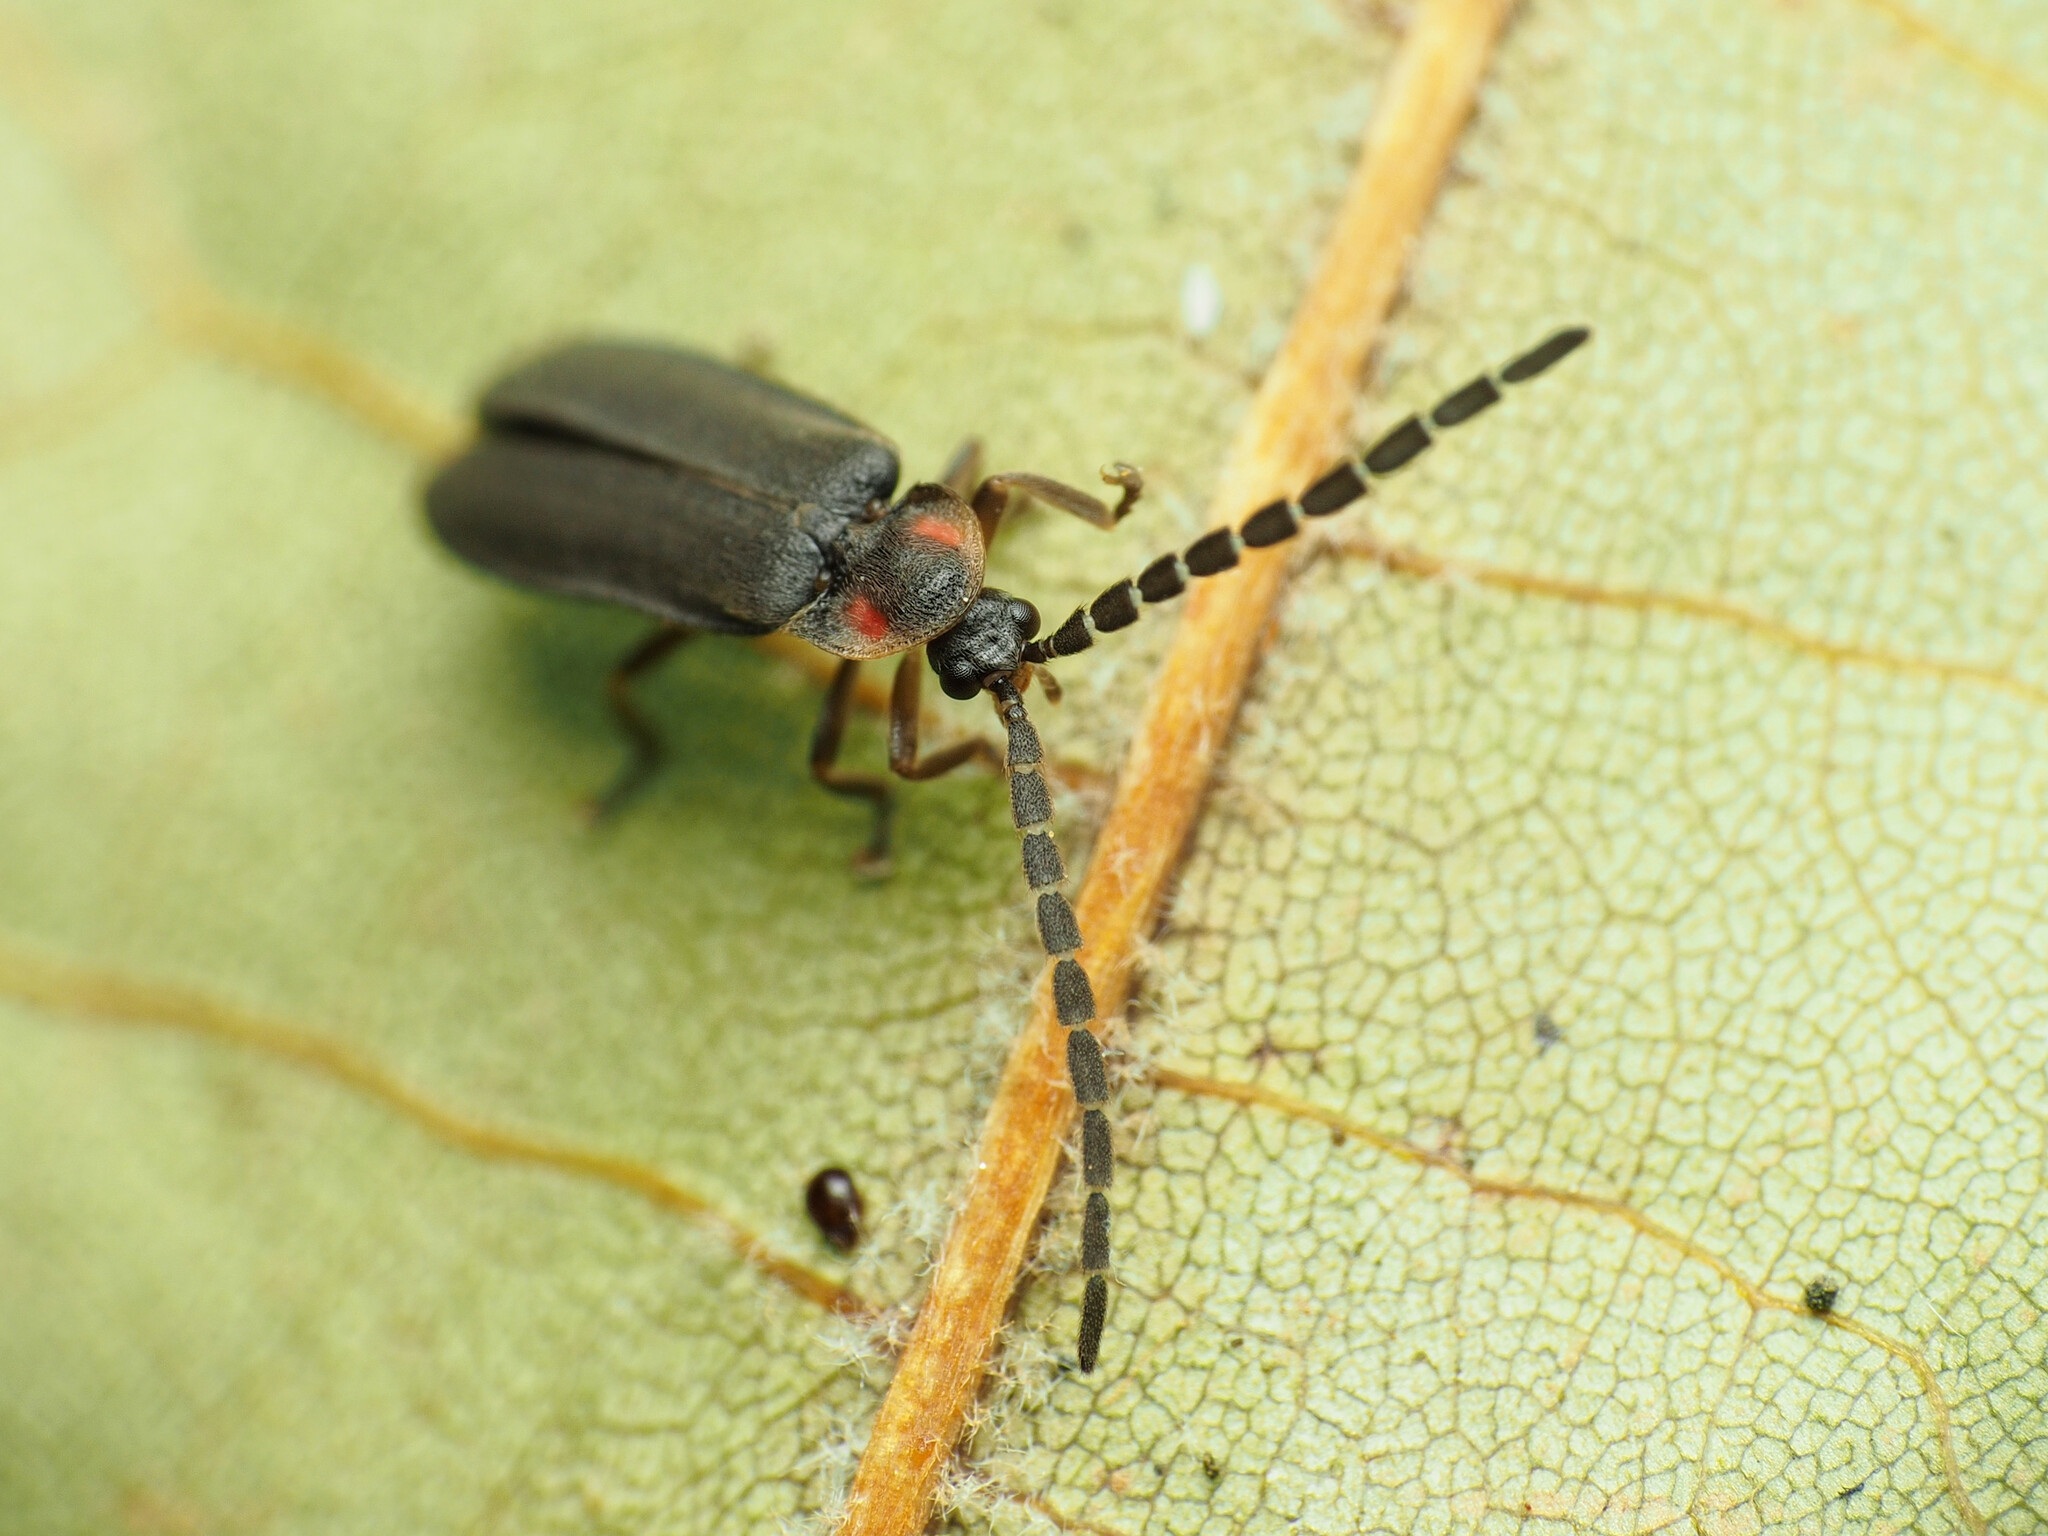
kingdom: Animalia
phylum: Arthropoda
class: Insecta
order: Coleoptera
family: Lampyridae
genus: Lucidota
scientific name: Lucidota punctata
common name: Dotted firefly
